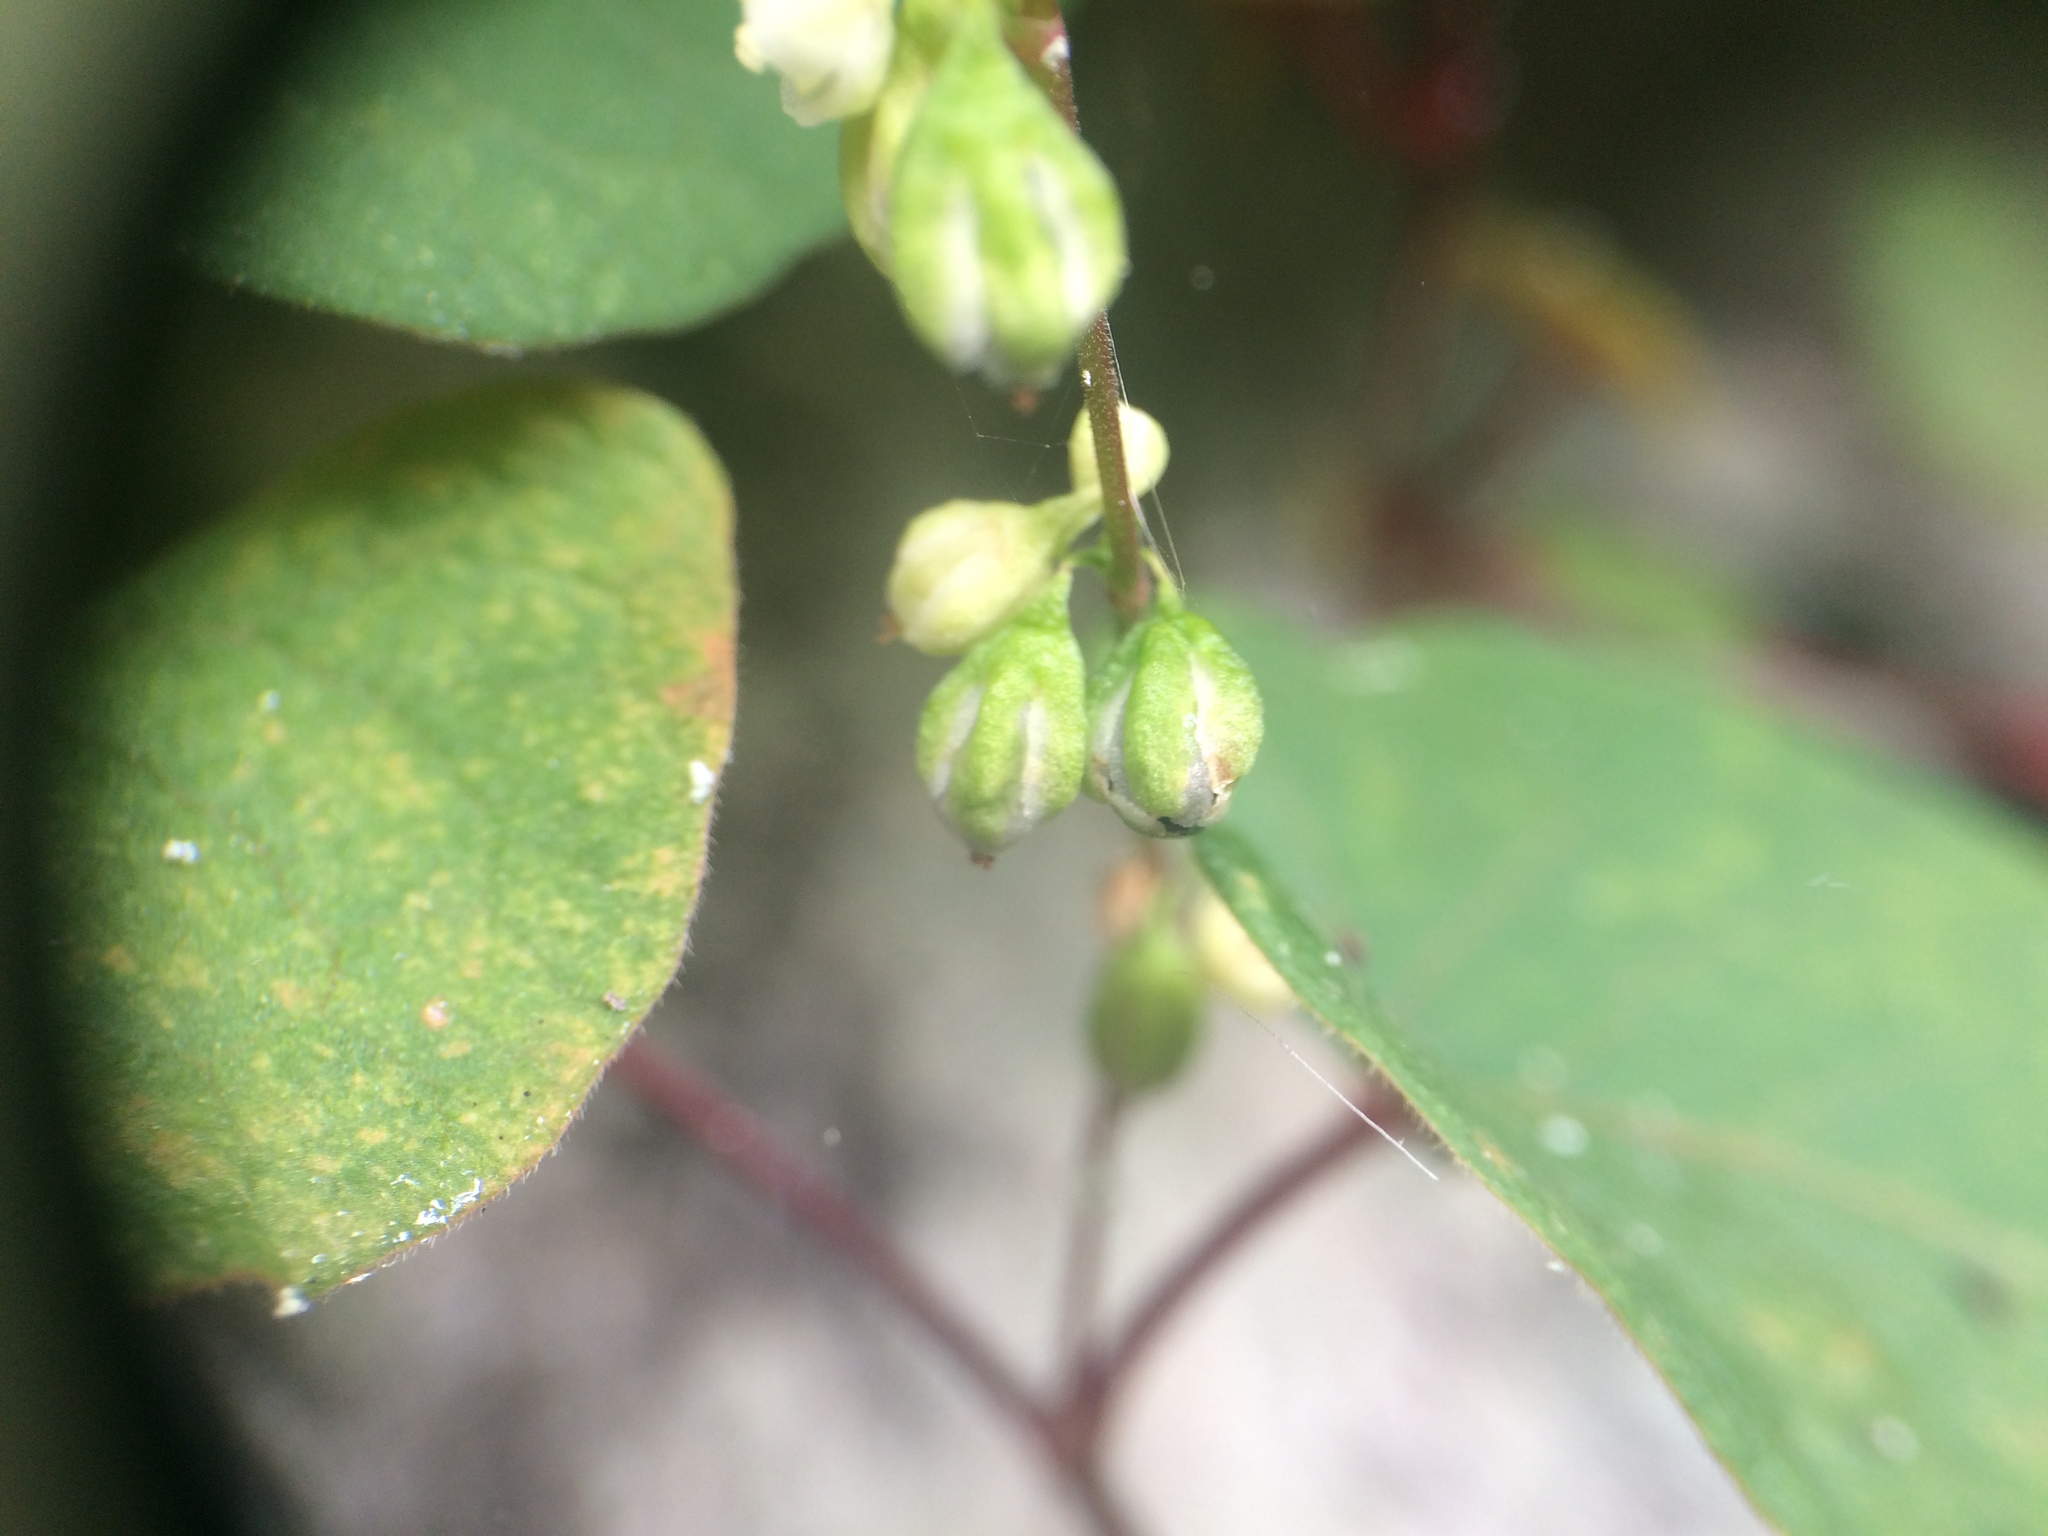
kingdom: Plantae
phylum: Tracheophyta
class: Magnoliopsida
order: Caryophyllales
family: Polygonaceae
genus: Parogonum
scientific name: Parogonum ciliinode
